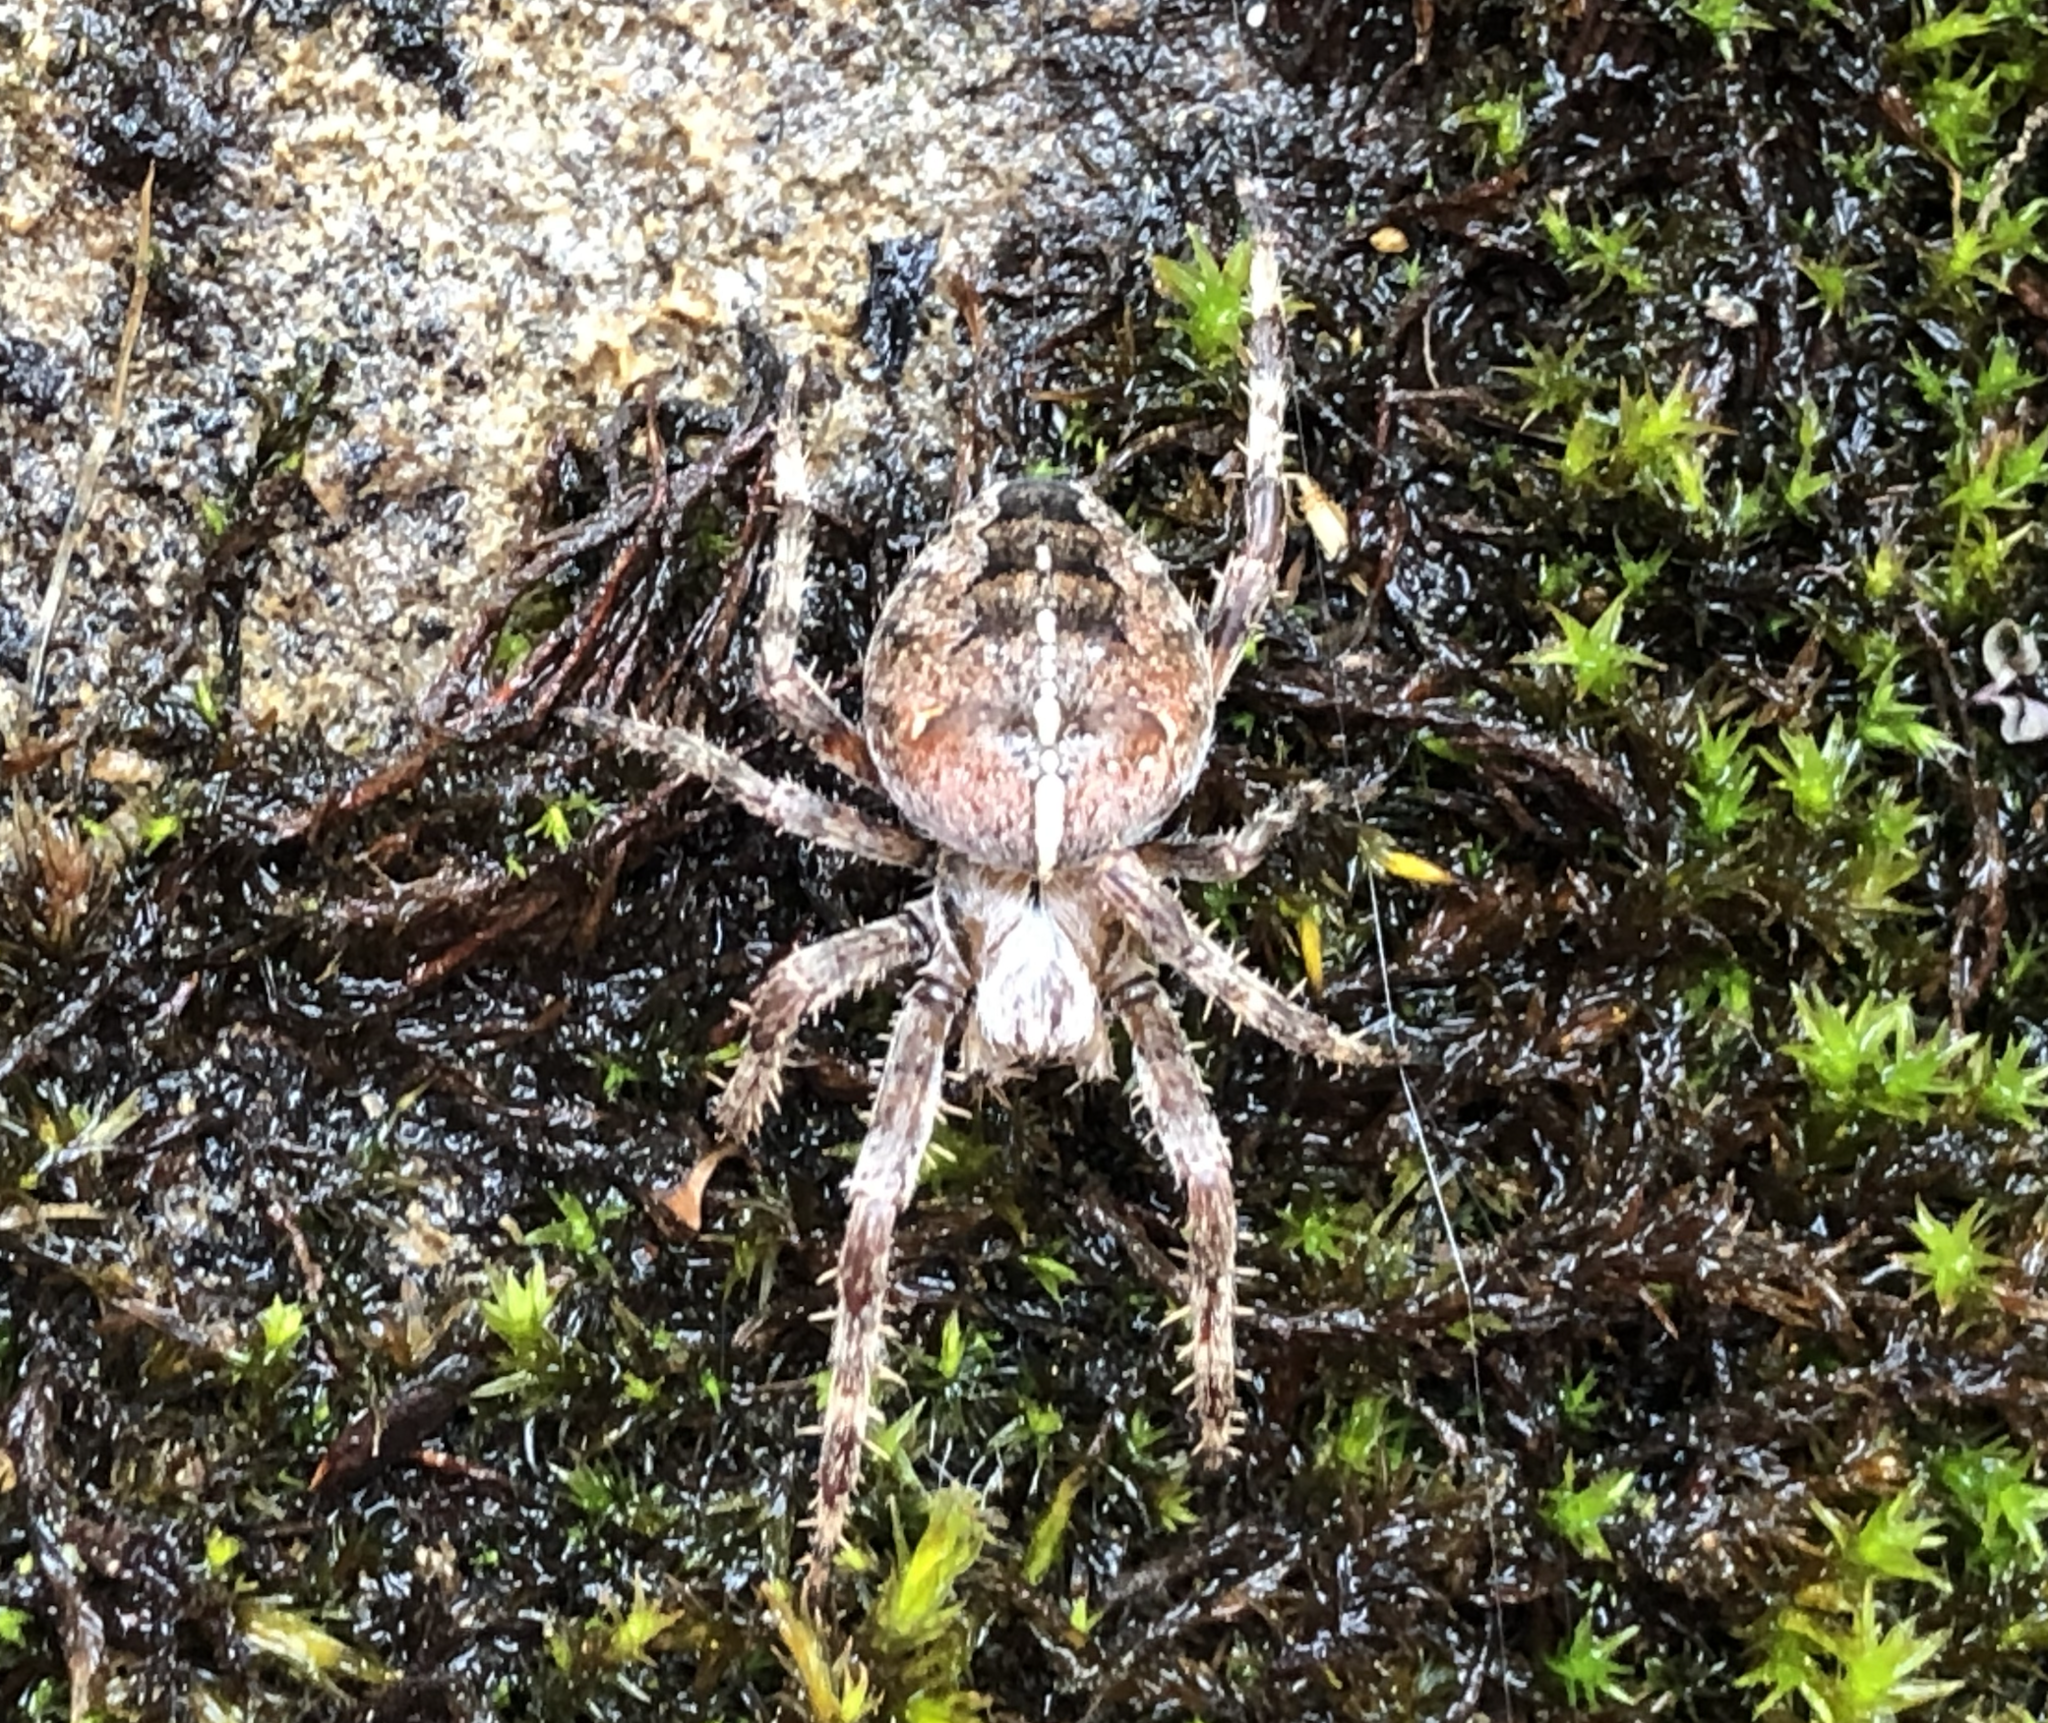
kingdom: Animalia
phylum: Arthropoda
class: Arachnida
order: Araneae
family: Araneidae
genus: Araneus
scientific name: Araneus diadematus
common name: Cross orbweaver
